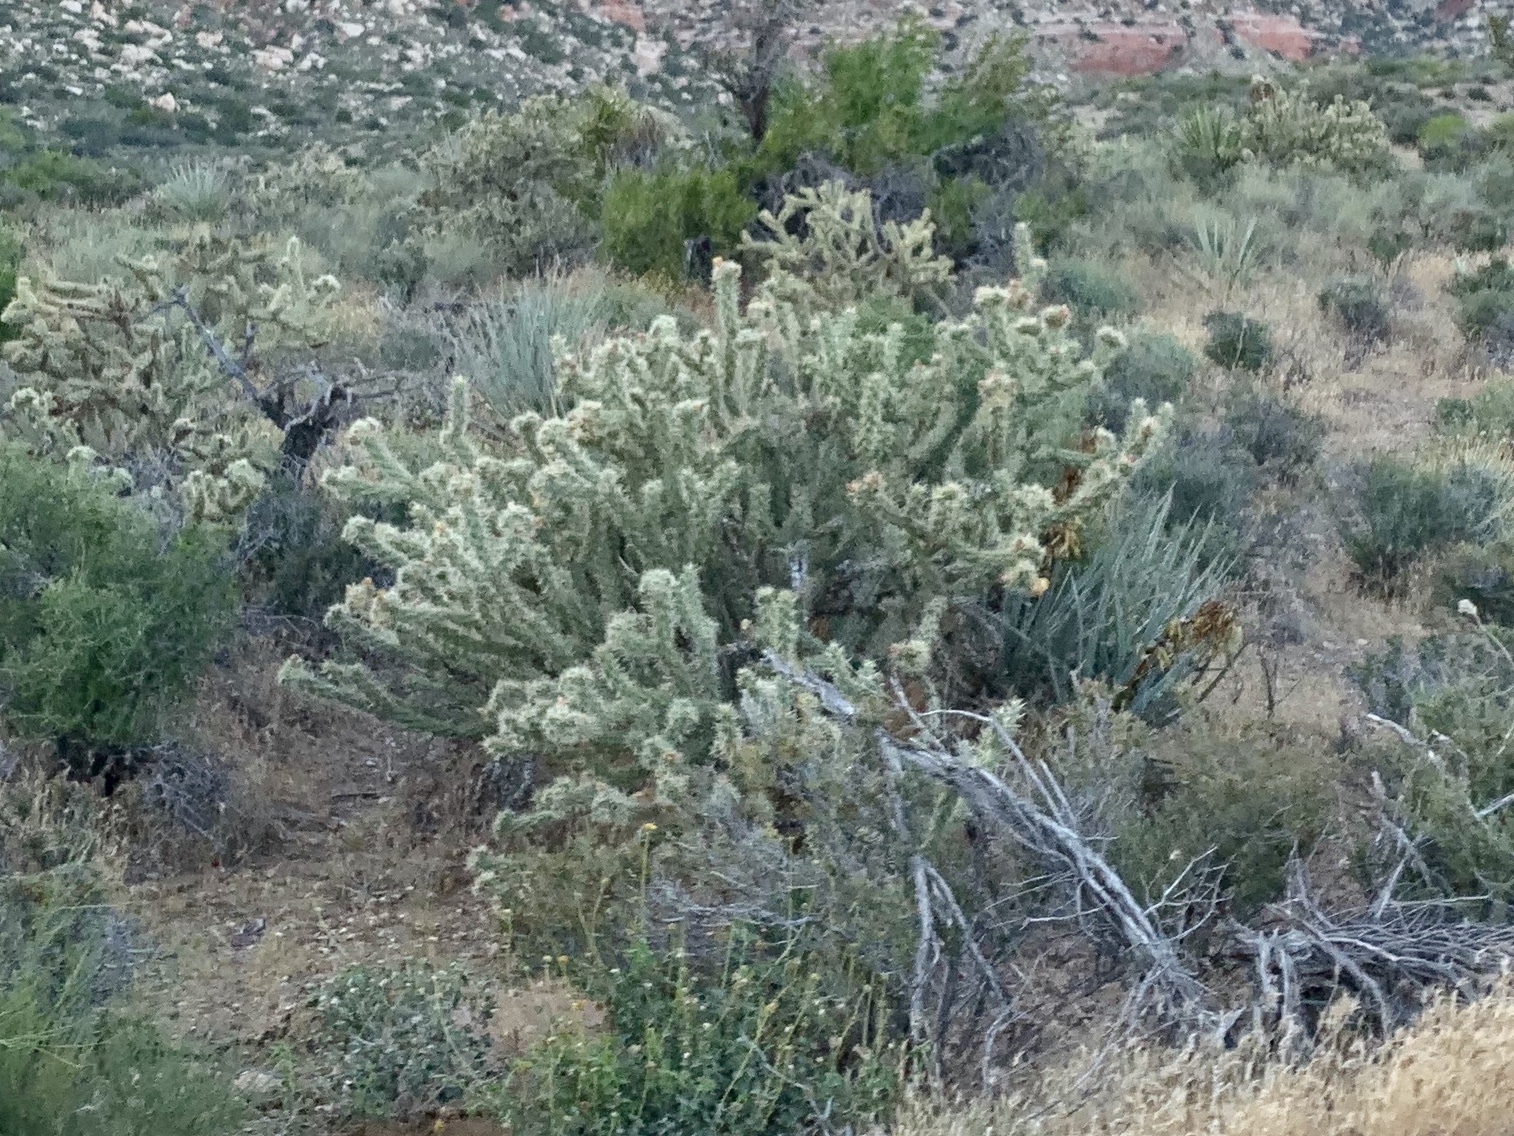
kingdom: Plantae
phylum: Tracheophyta
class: Magnoliopsida
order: Caryophyllales
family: Cactaceae
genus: Cylindropuntia
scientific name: Cylindropuntia acanthocarpa
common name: Buckhorn cholla
